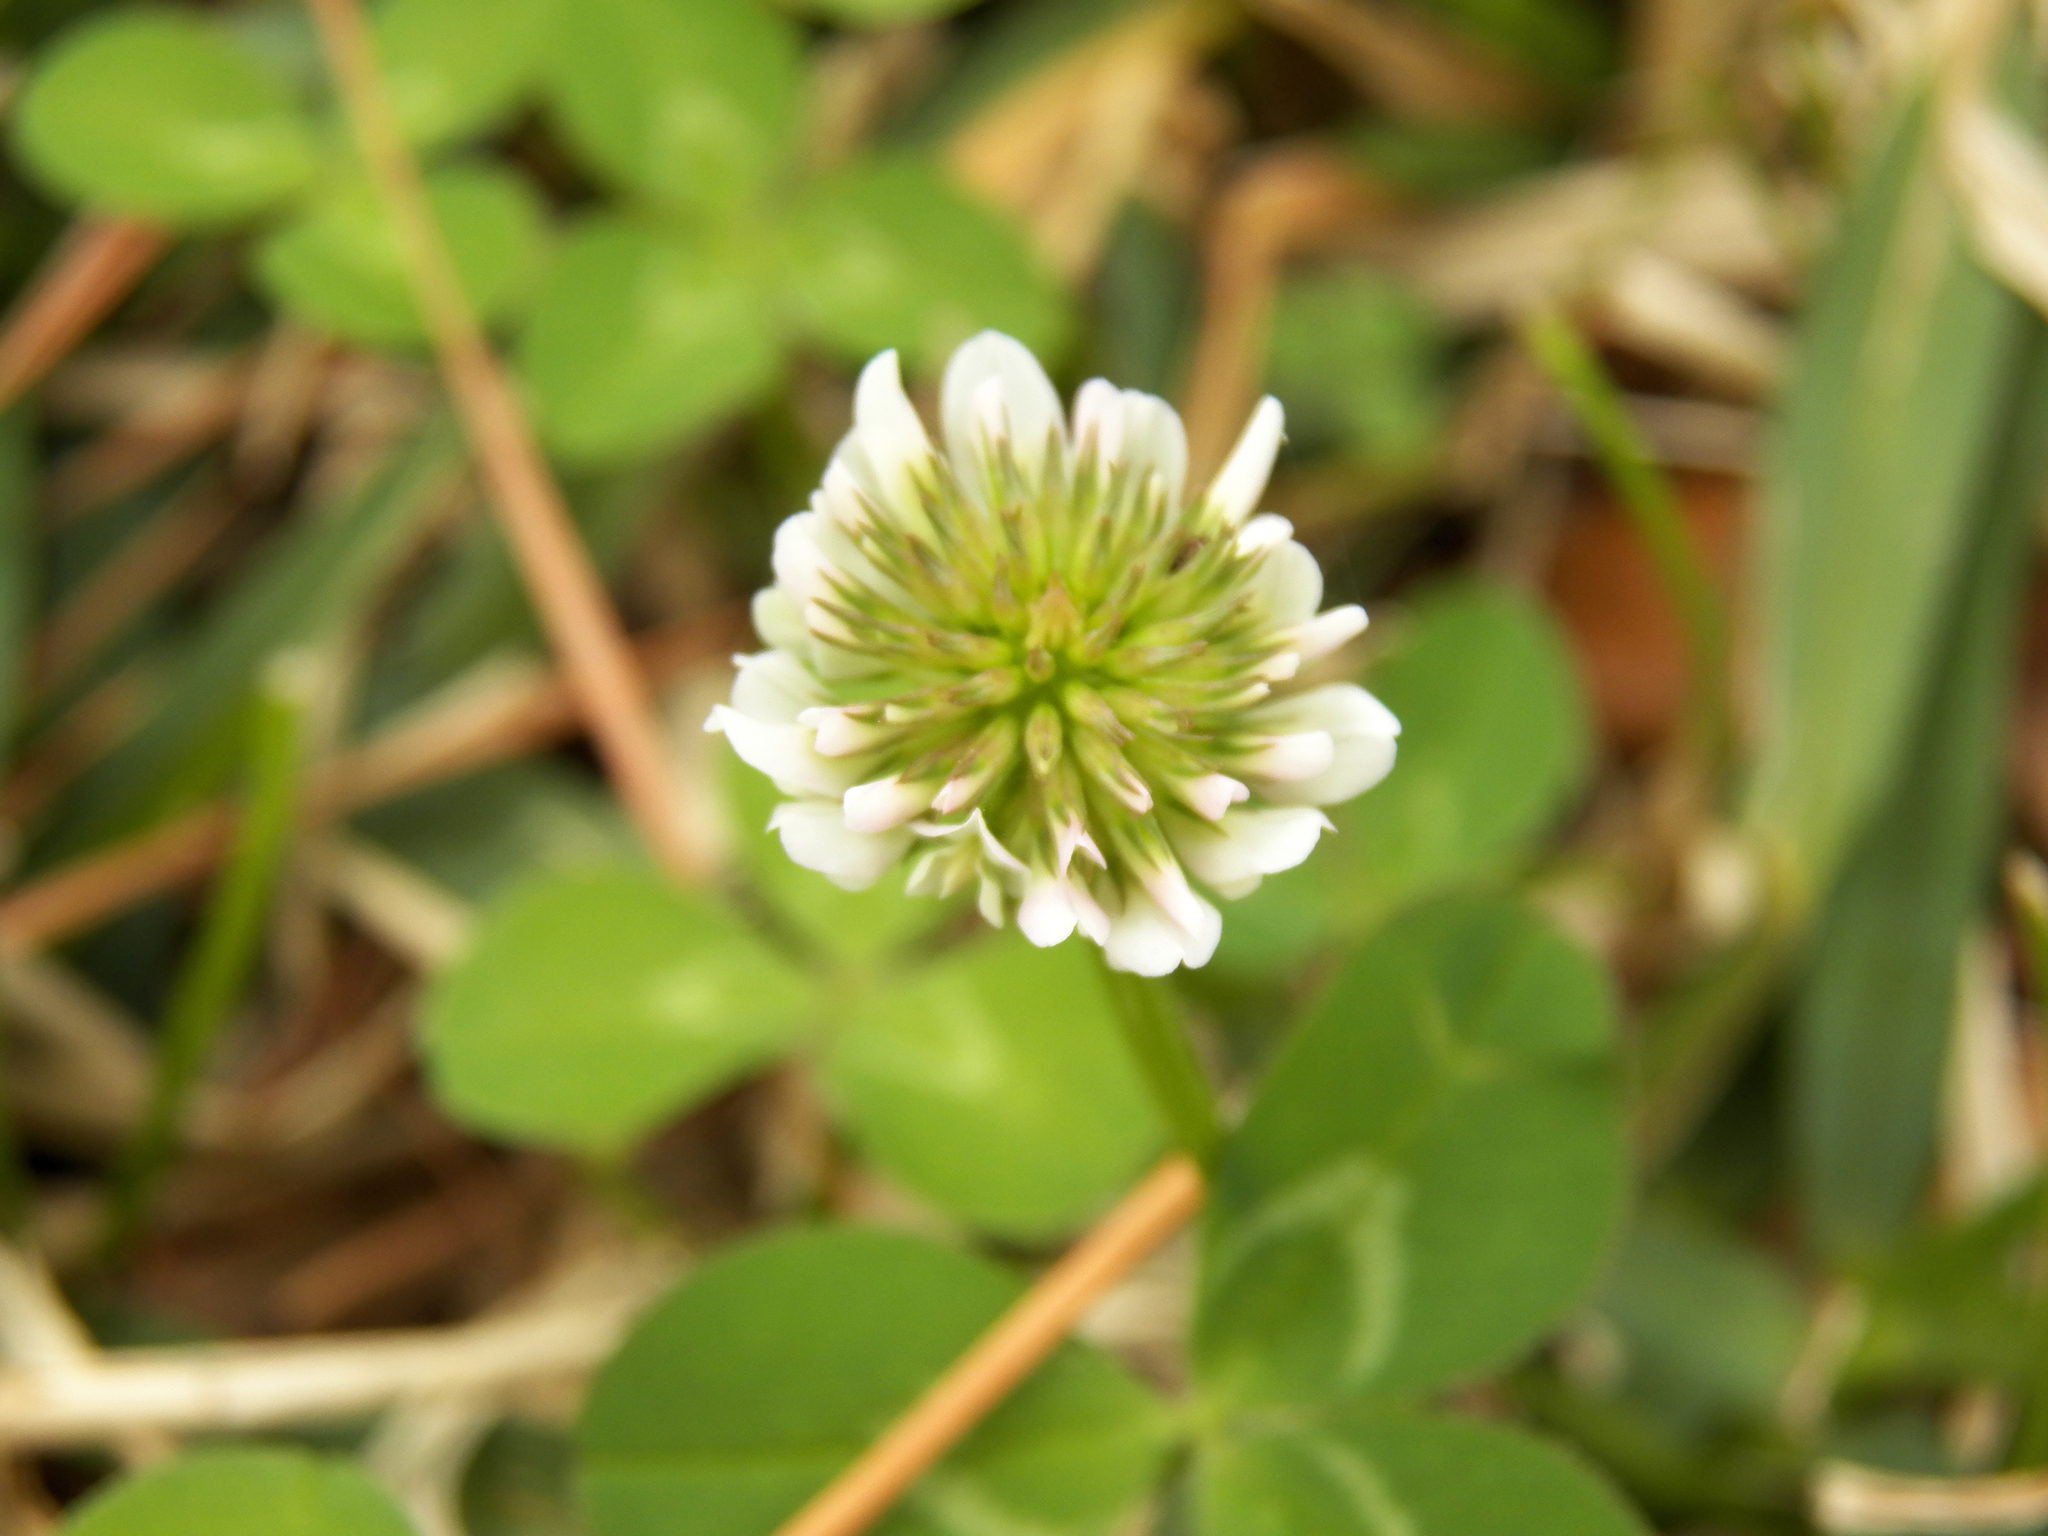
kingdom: Plantae
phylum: Tracheophyta
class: Magnoliopsida
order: Fabales
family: Fabaceae
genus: Trifolium
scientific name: Trifolium repens
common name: White clover
